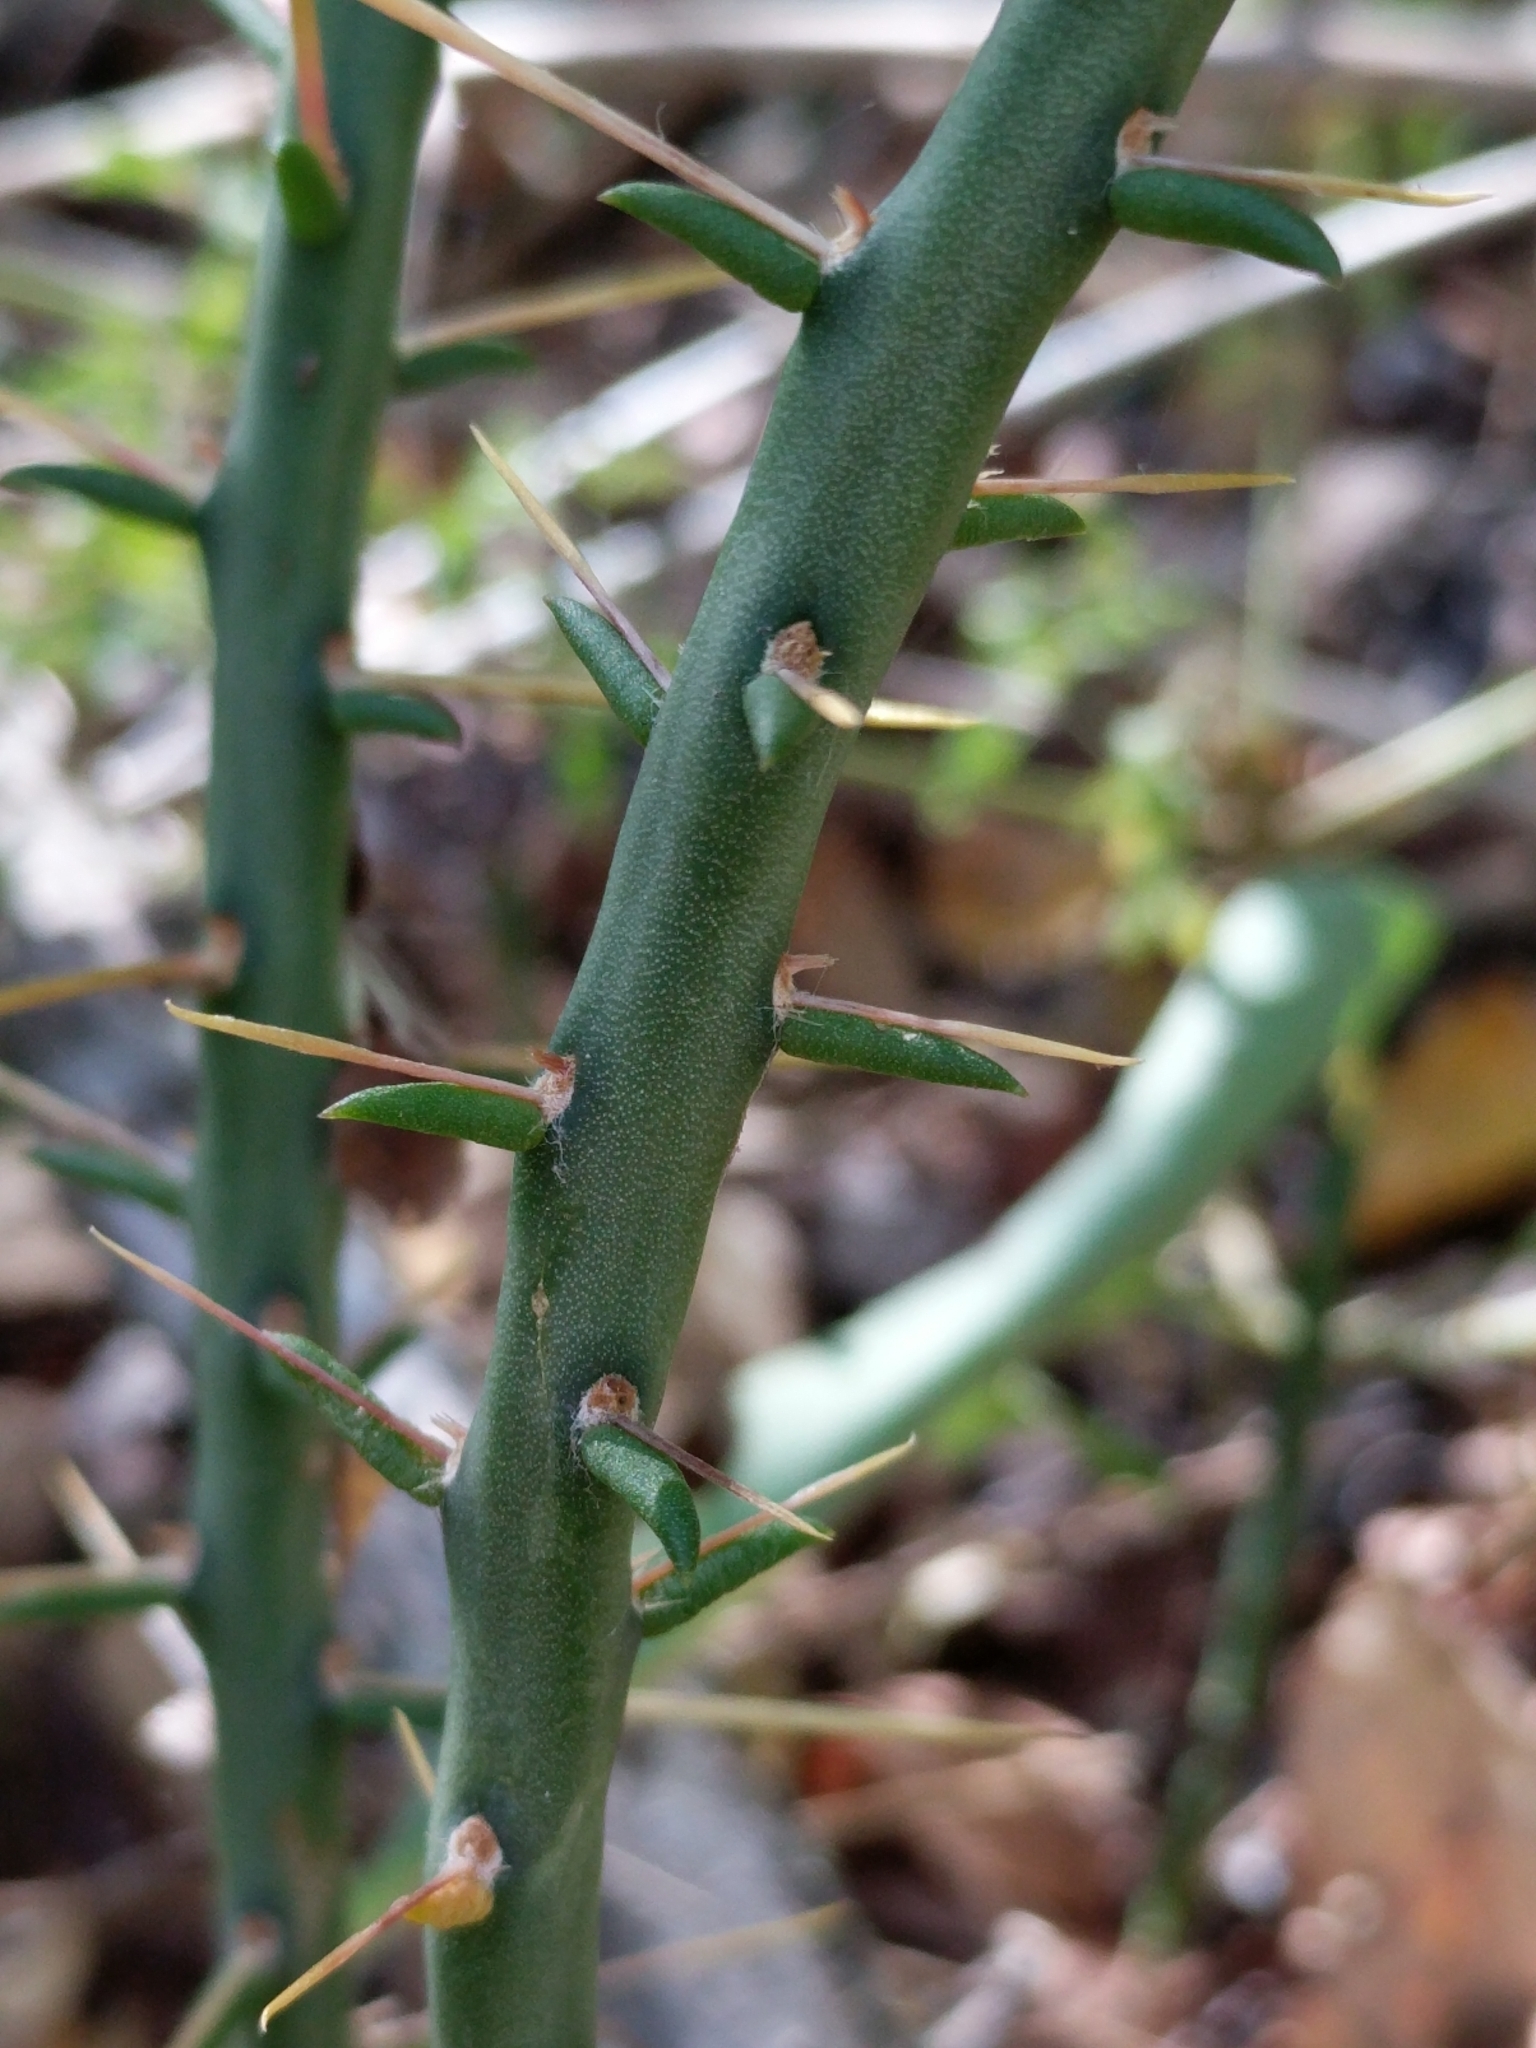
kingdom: Plantae
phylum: Tracheophyta
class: Magnoliopsida
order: Caryophyllales
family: Cactaceae
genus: Cylindropuntia
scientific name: Cylindropuntia leptocaulis
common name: Christmas cactus
